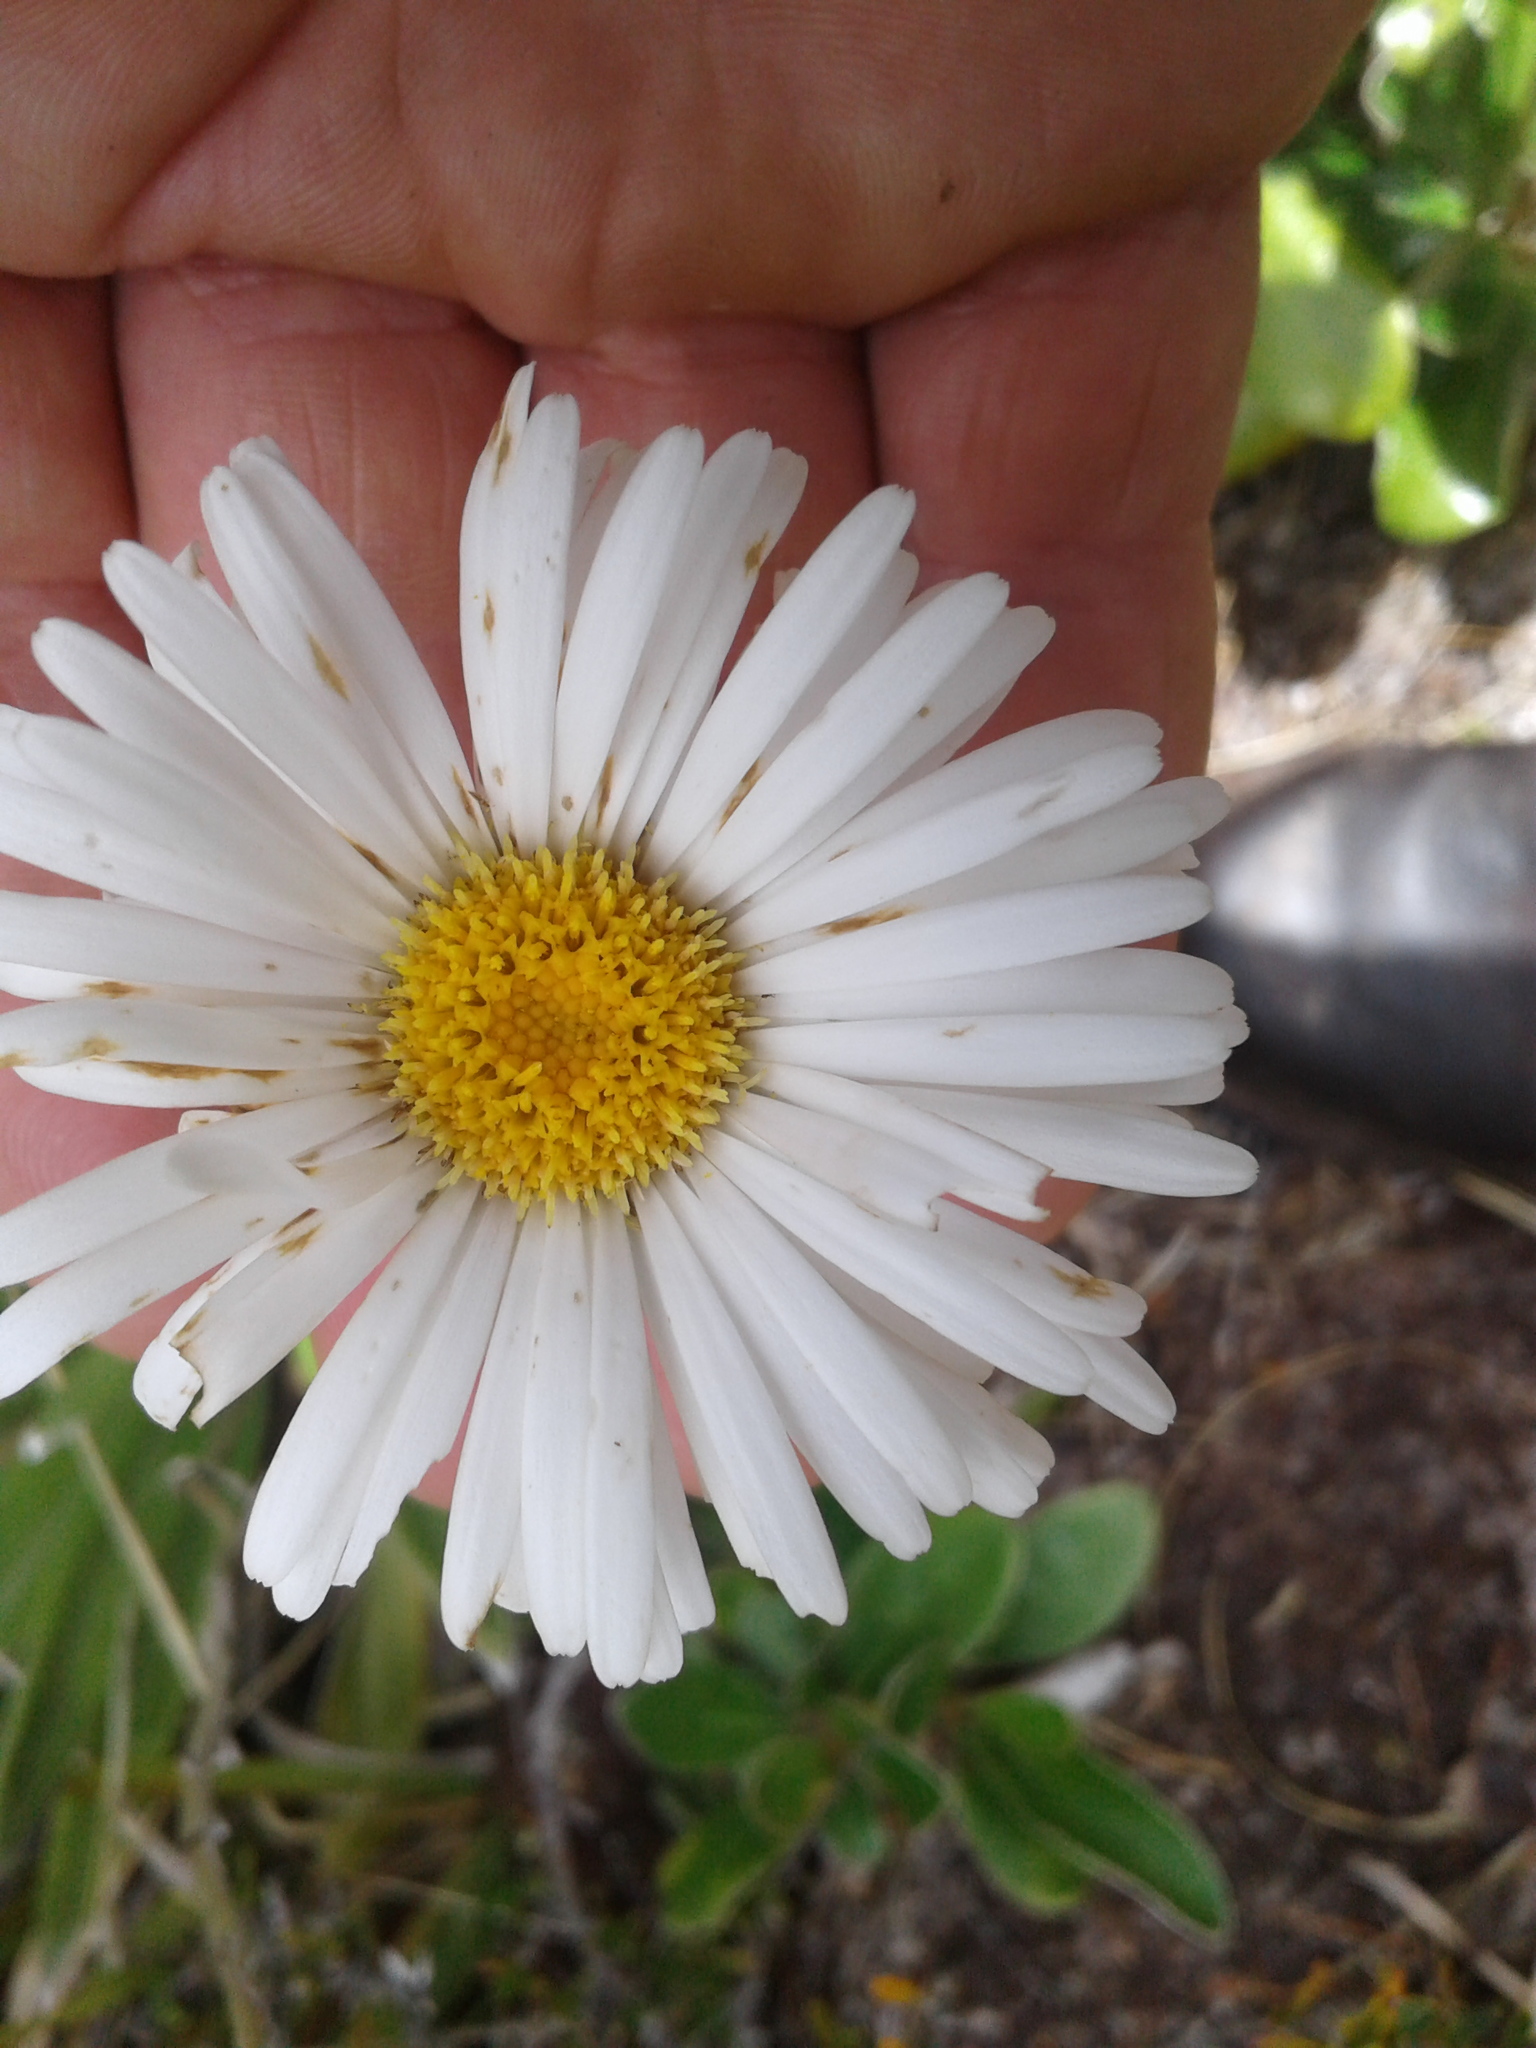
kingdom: Plantae
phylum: Tracheophyta
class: Magnoliopsida
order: Asterales
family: Asteraceae
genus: Celmisia
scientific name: Celmisia
